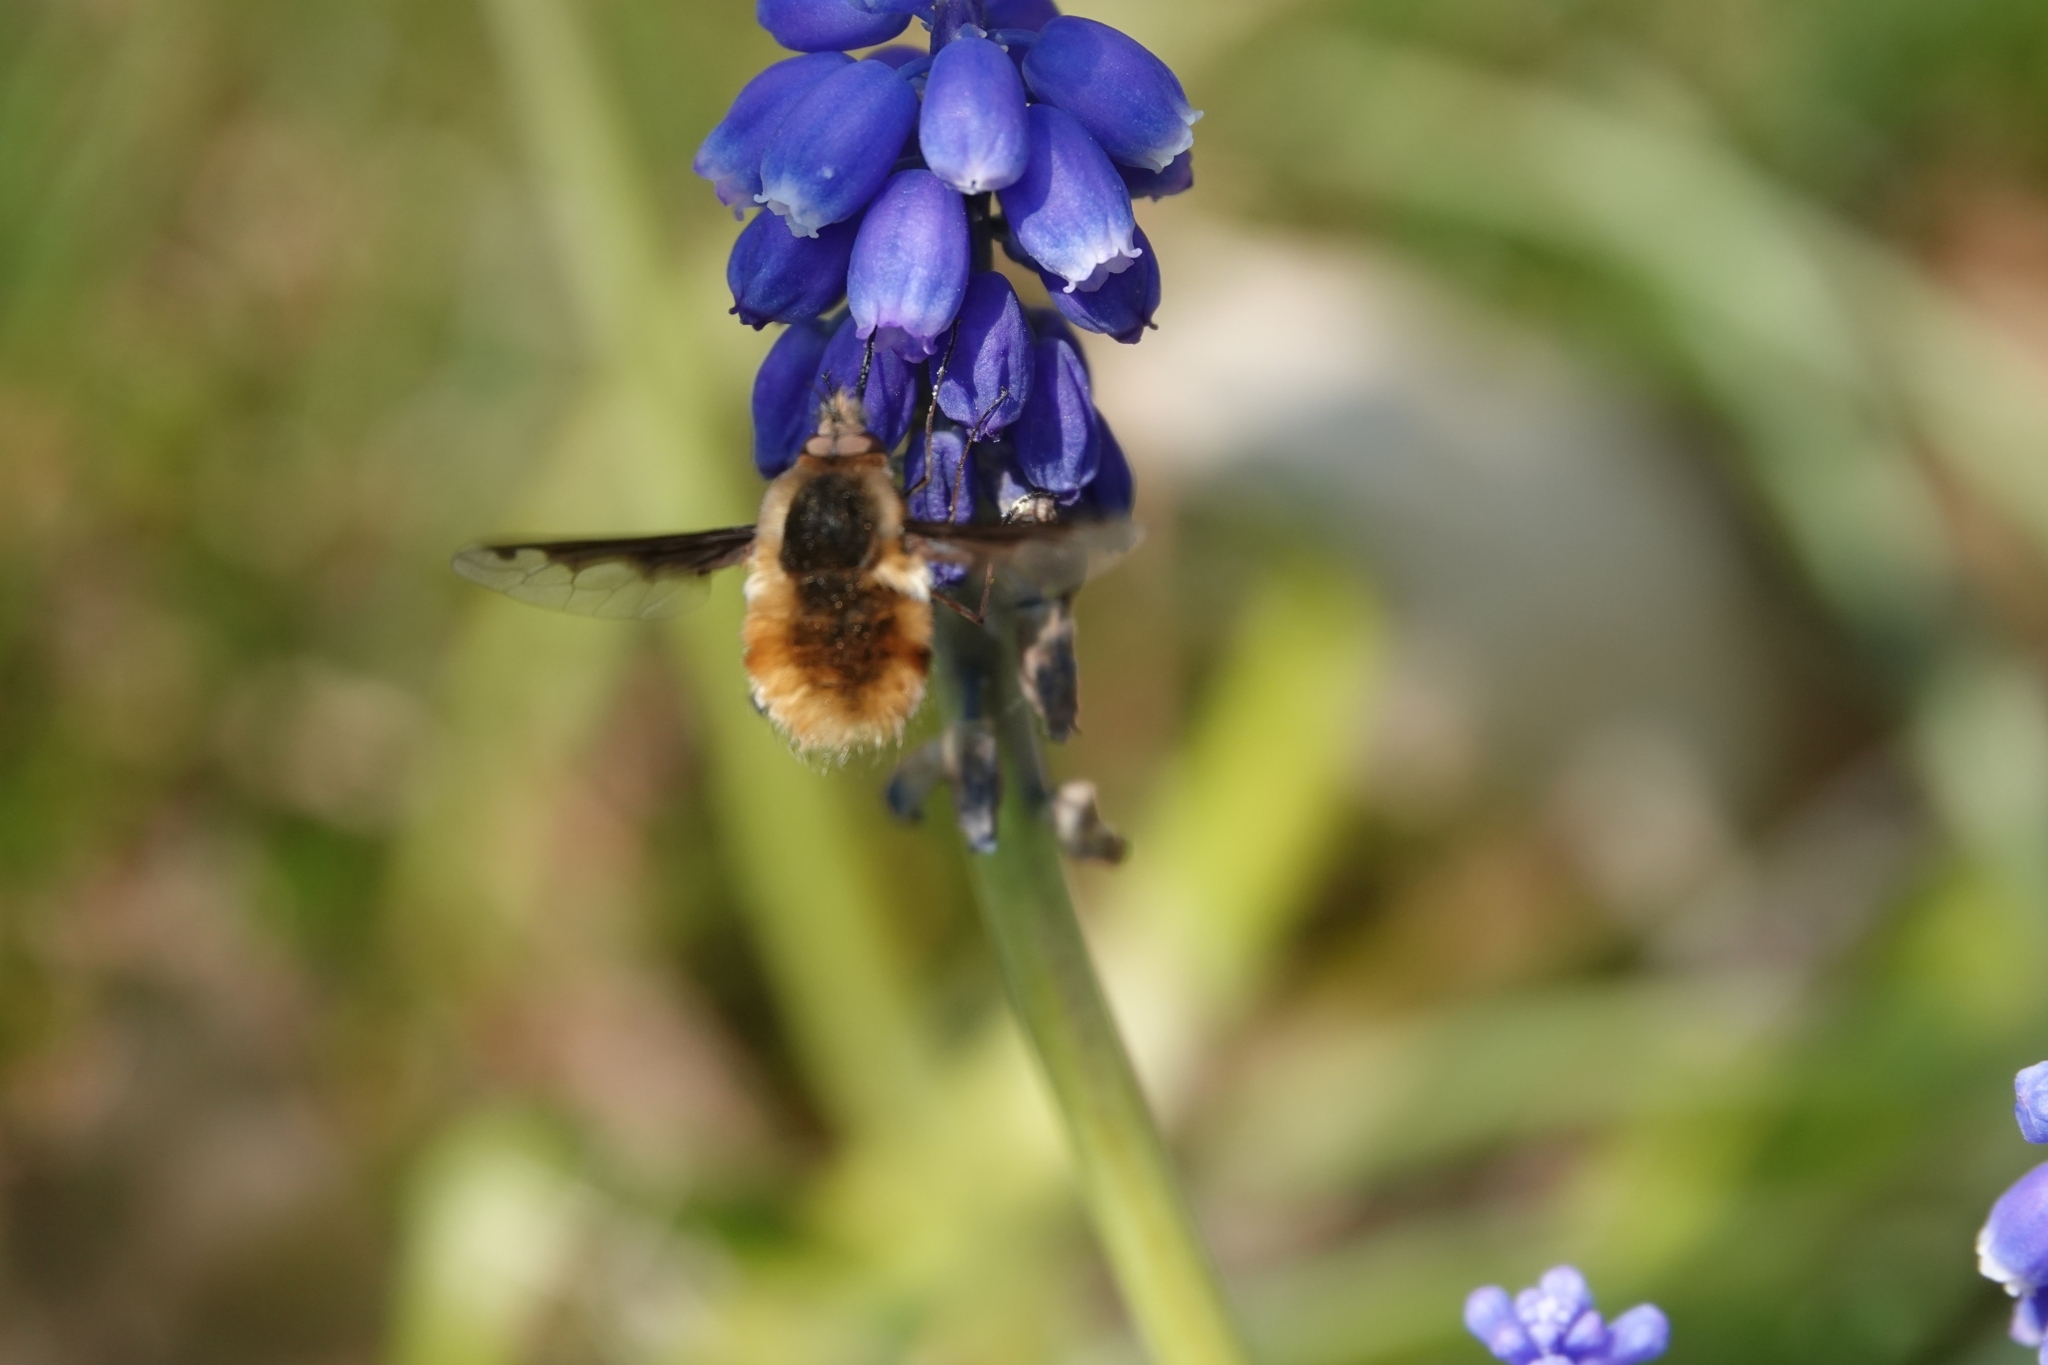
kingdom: Animalia
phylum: Arthropoda
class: Insecta
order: Diptera
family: Bombyliidae
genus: Bombylius
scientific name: Bombylius major
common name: Bee fly
